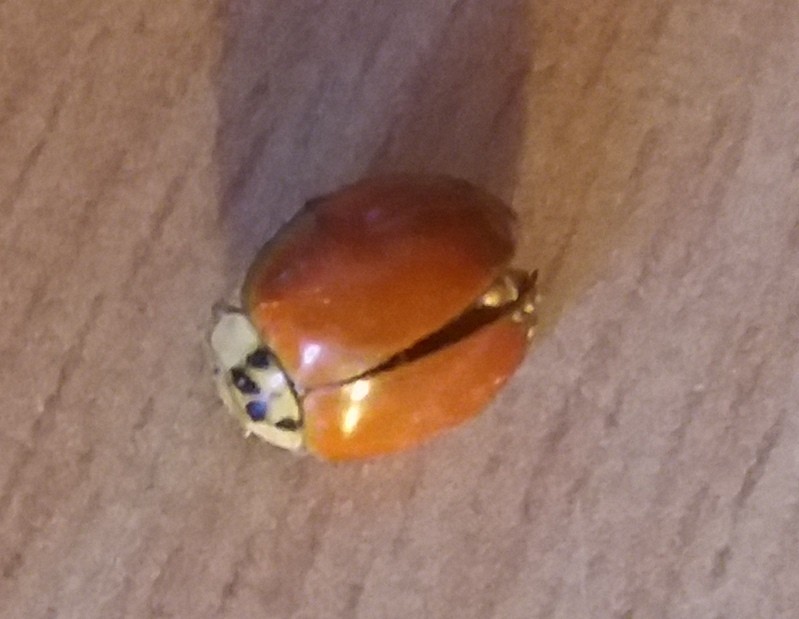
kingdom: Animalia
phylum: Arthropoda
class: Insecta
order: Coleoptera
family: Coccinellidae
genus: Harmonia
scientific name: Harmonia axyridis
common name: Harlequin ladybird
